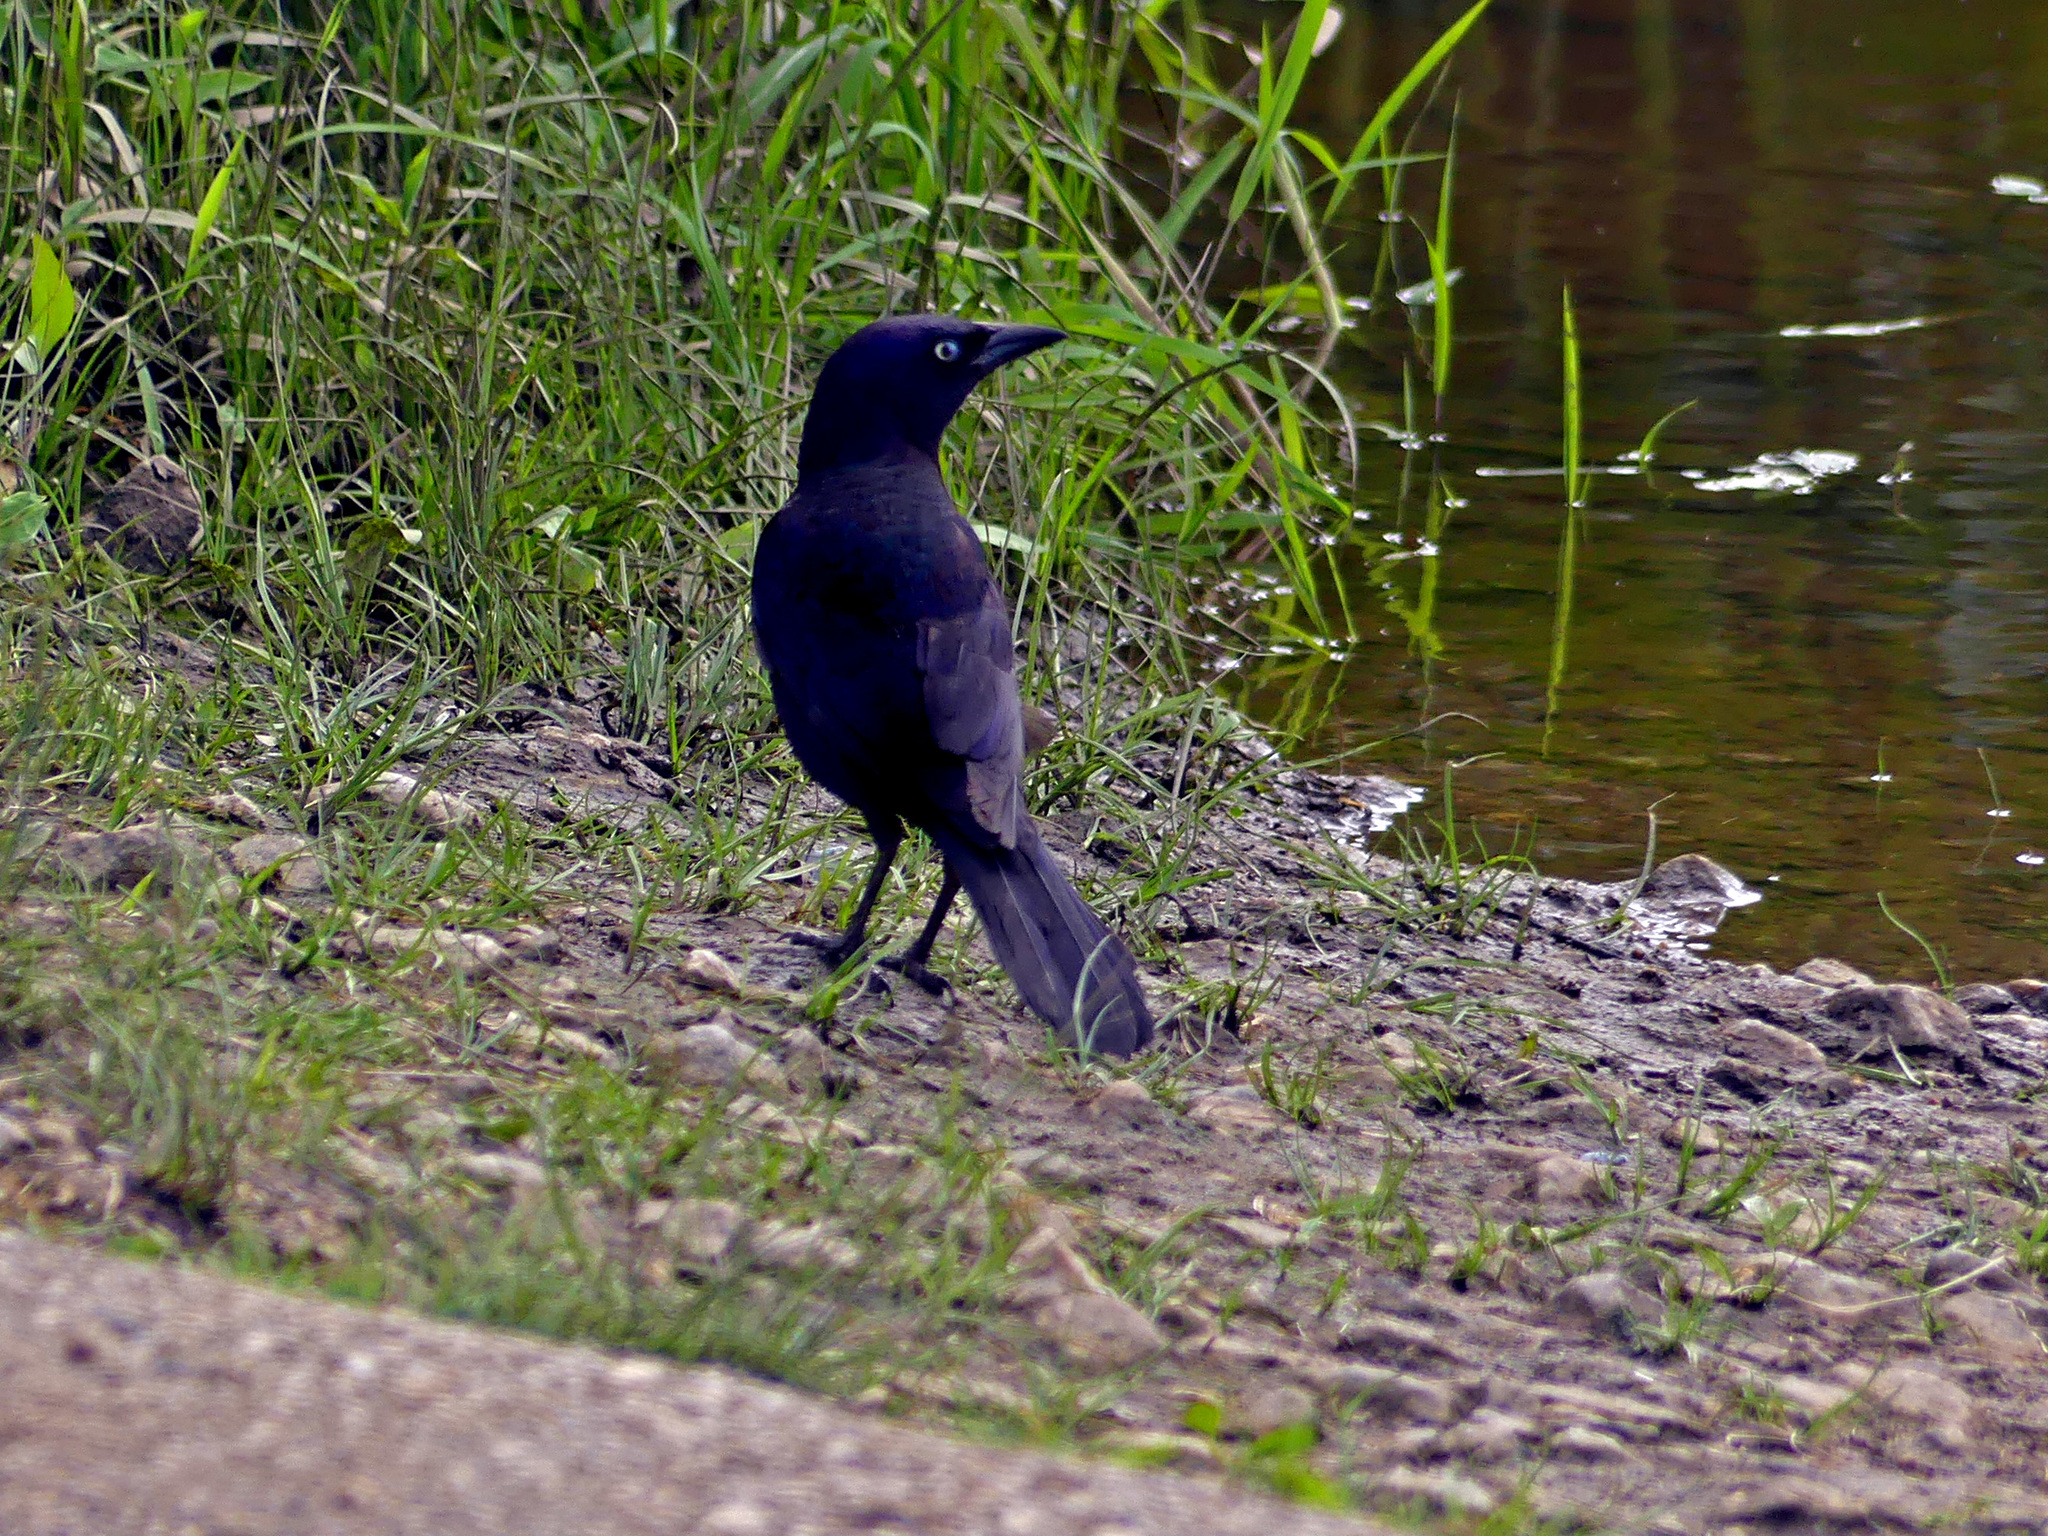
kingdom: Animalia
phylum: Chordata
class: Aves
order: Passeriformes
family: Icteridae
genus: Quiscalus
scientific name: Quiscalus quiscula
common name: Common grackle
